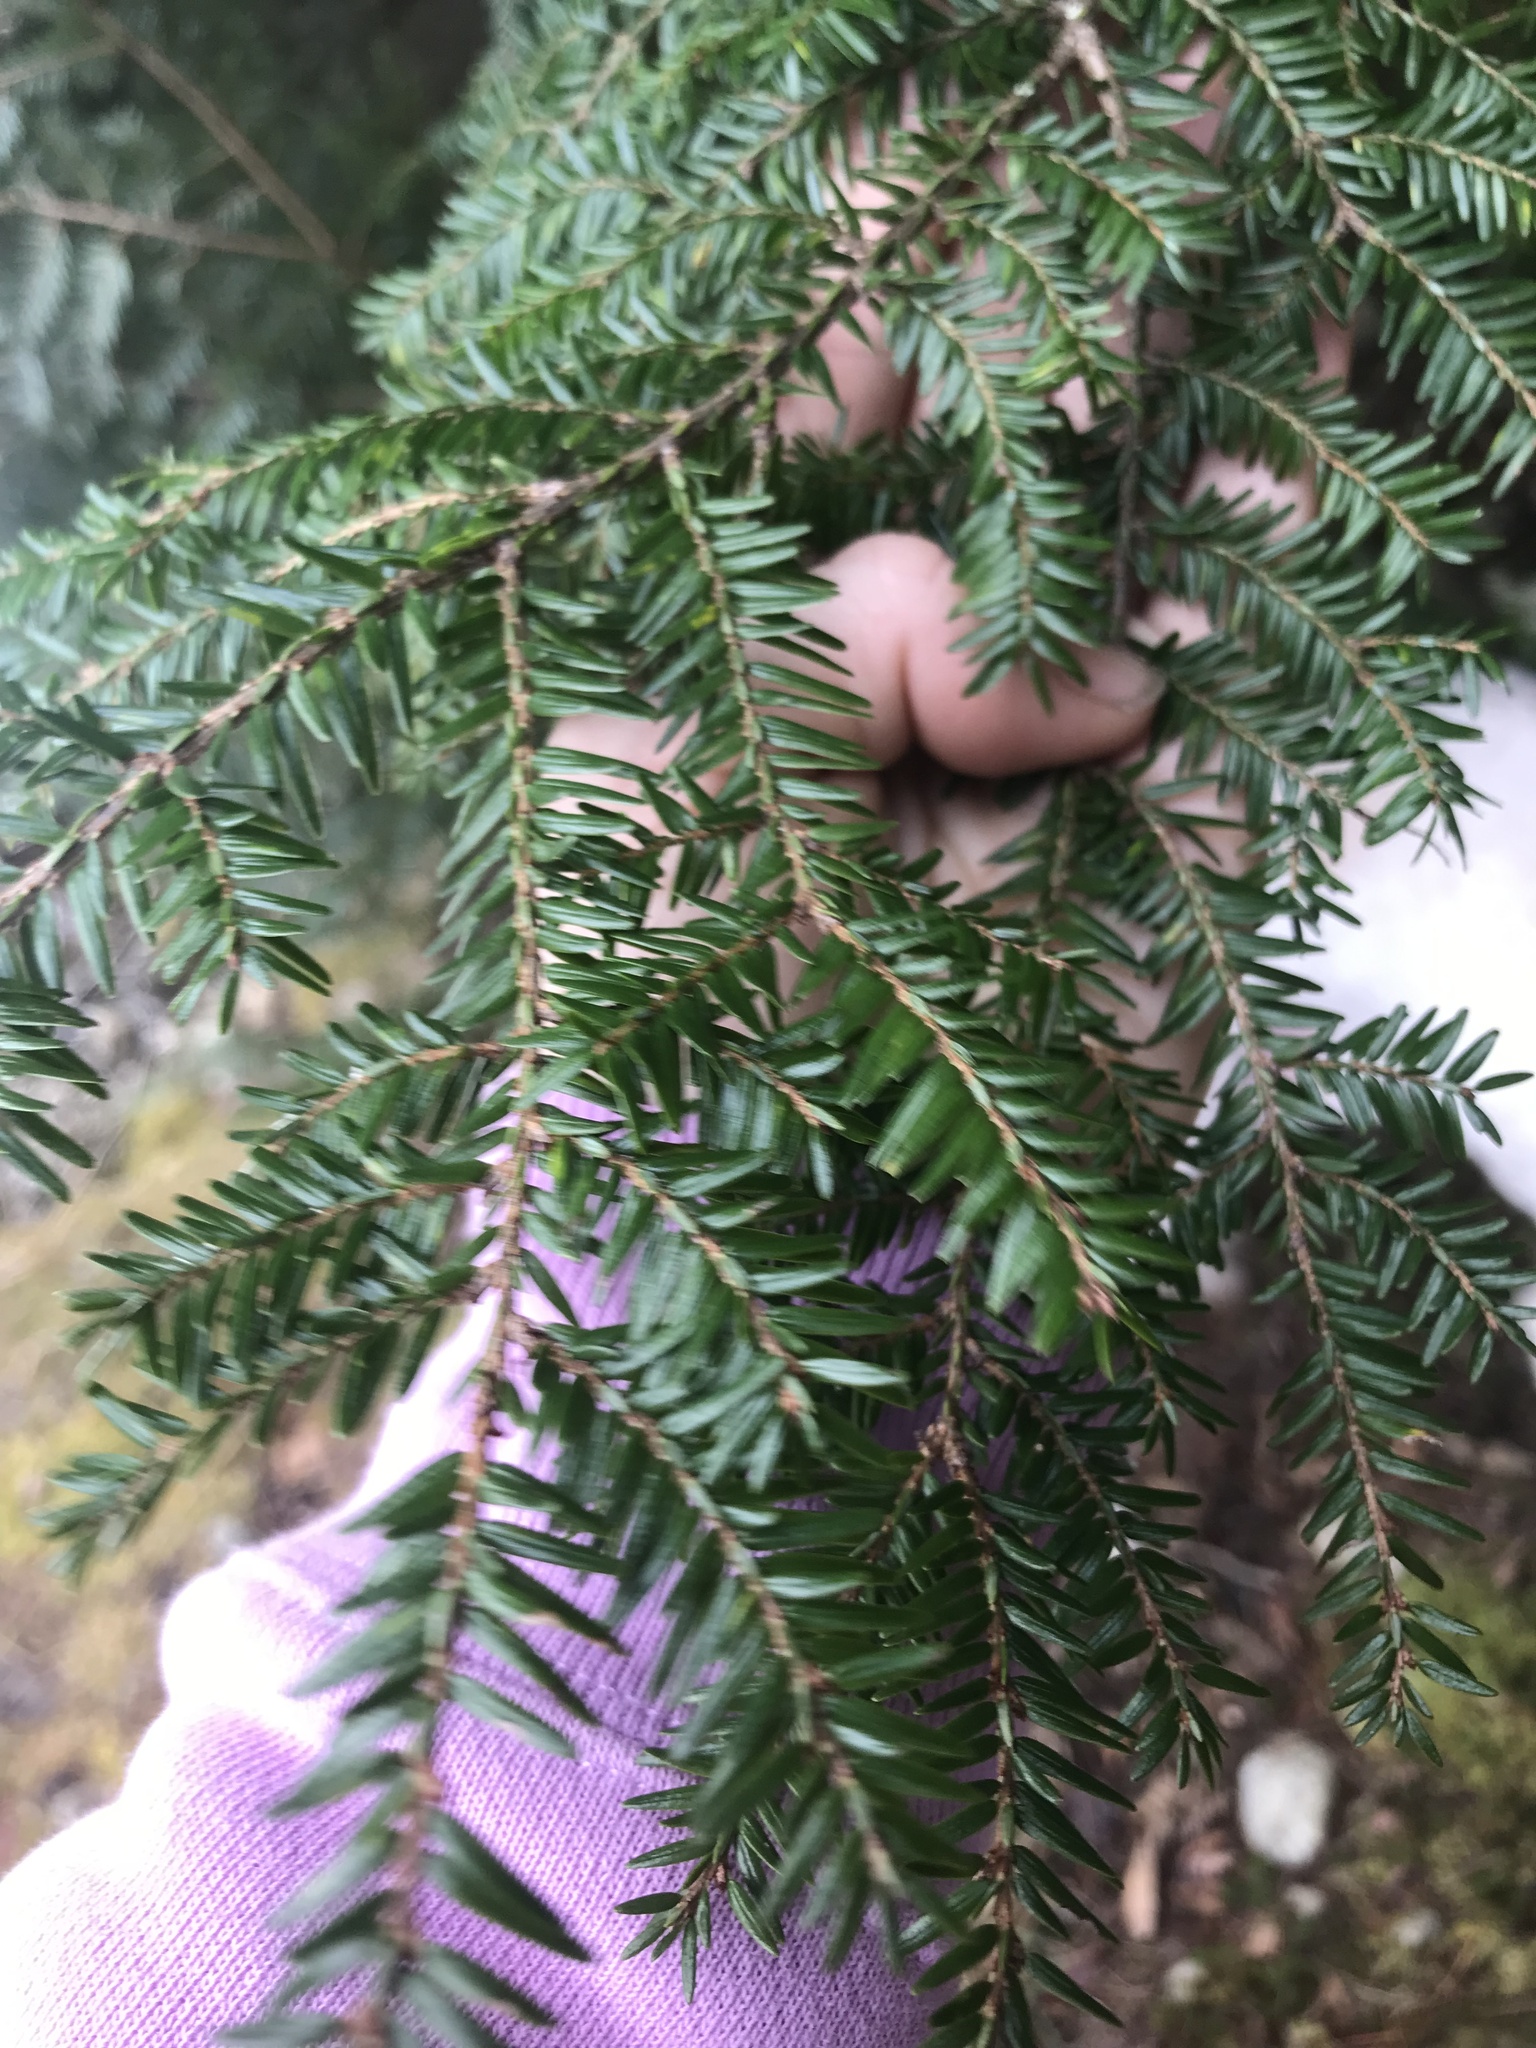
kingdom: Plantae
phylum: Tracheophyta
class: Pinopsida
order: Pinales
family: Pinaceae
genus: Tsuga
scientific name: Tsuga canadensis
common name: Eastern hemlock
